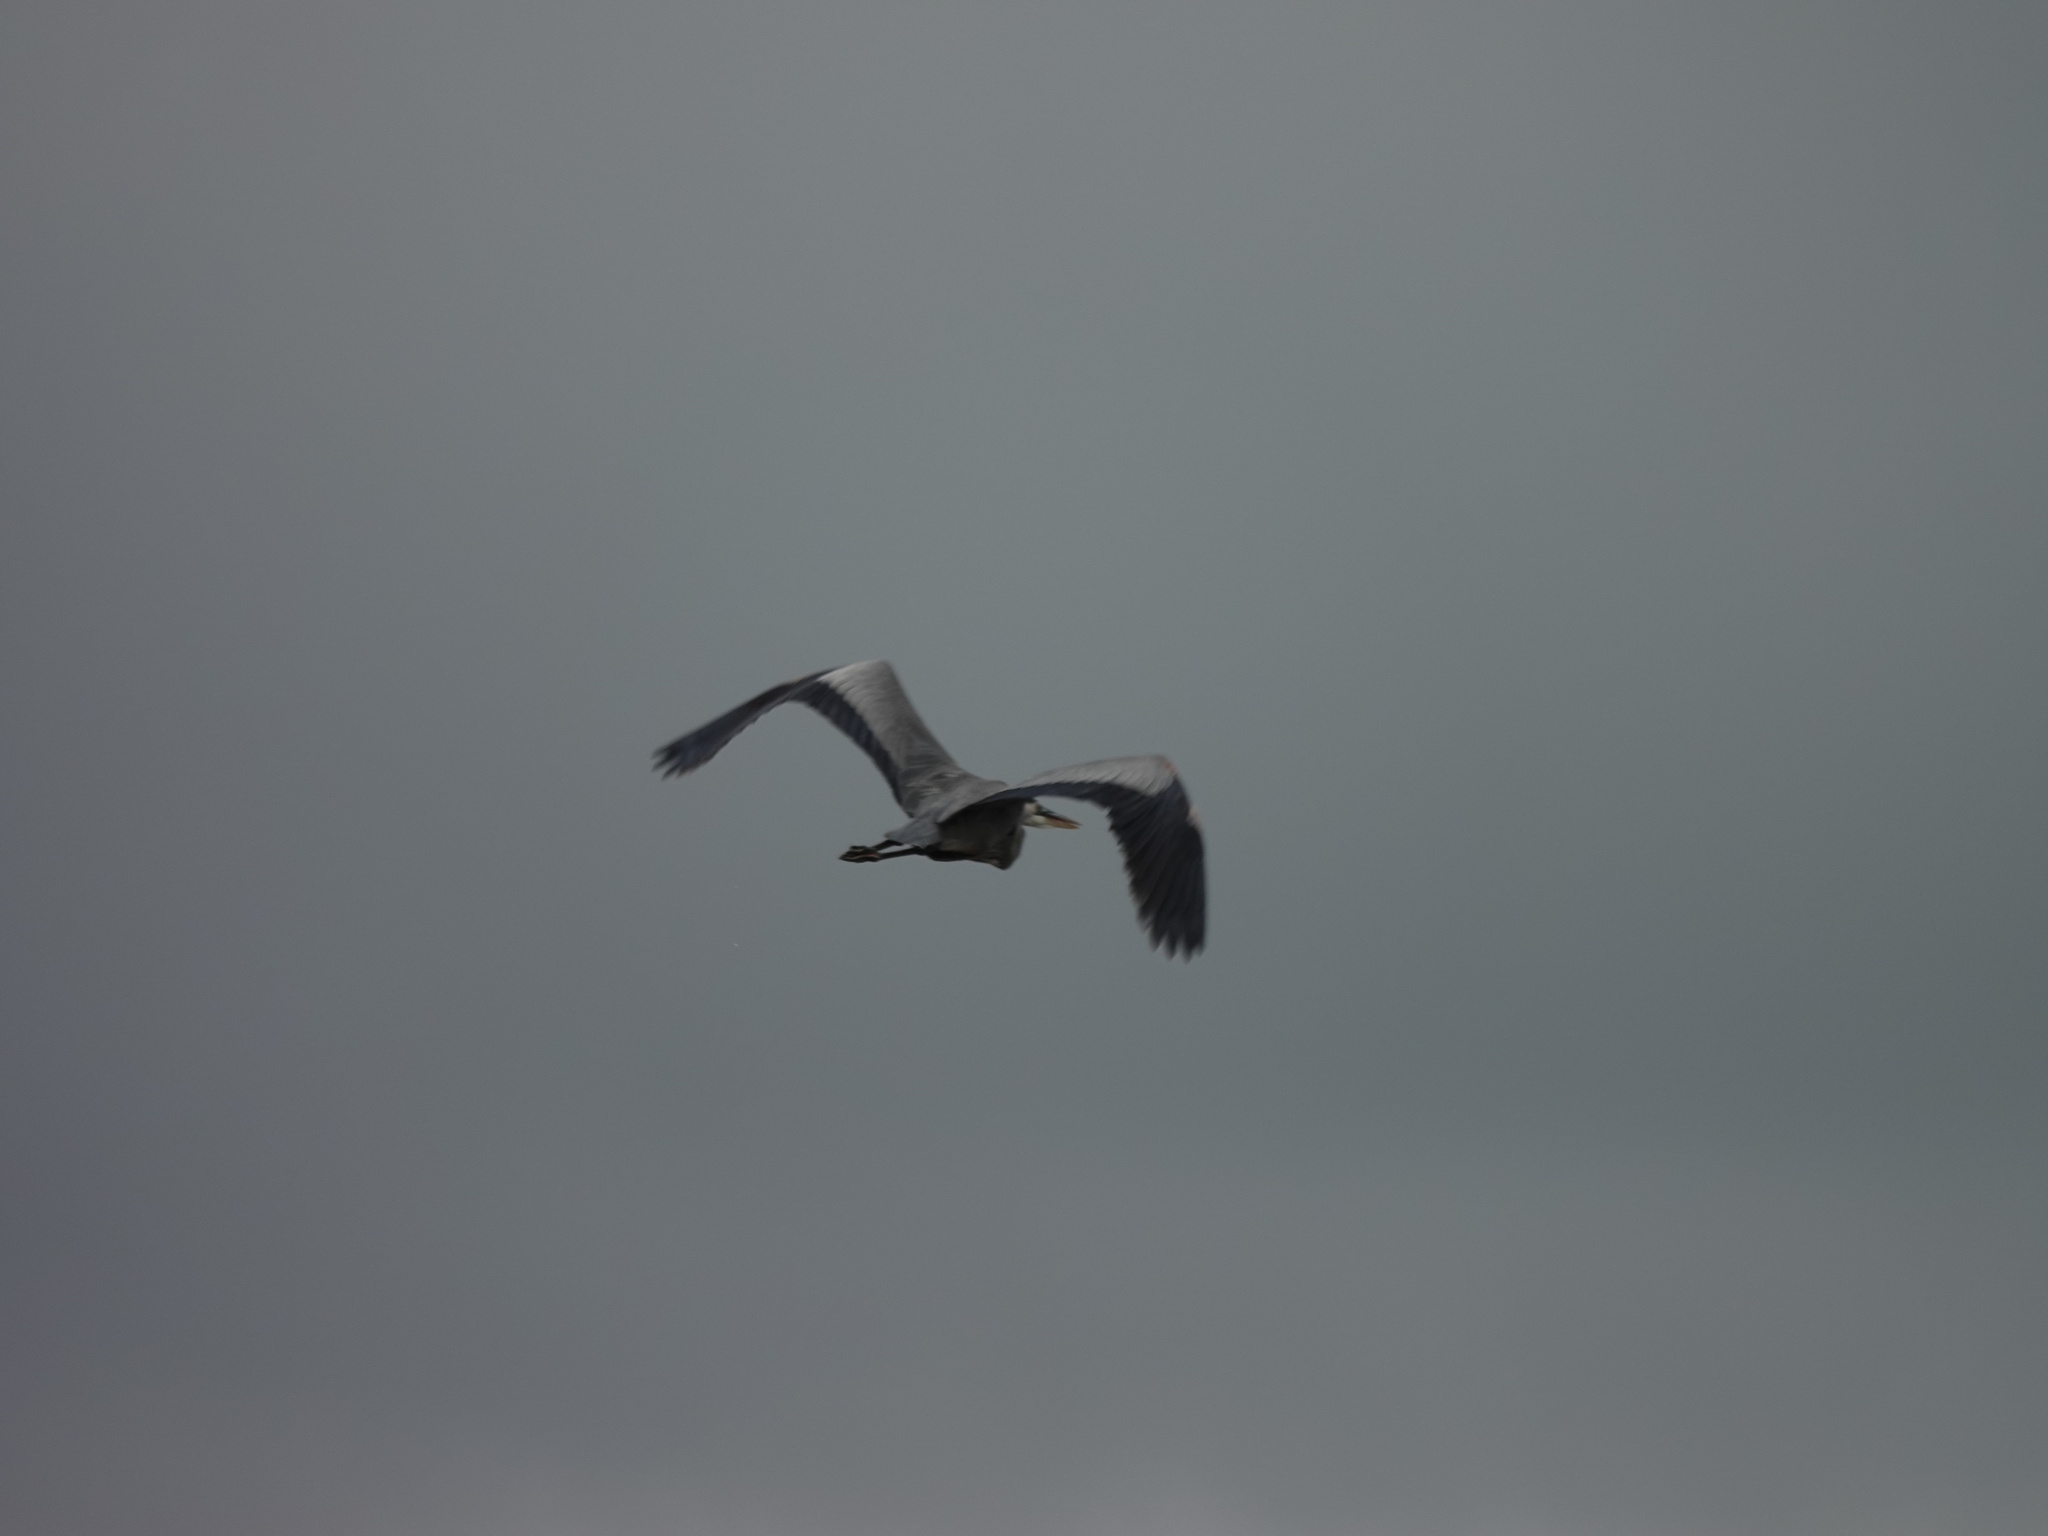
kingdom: Animalia
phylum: Chordata
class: Aves
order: Pelecaniformes
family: Ardeidae
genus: Ardea
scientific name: Ardea herodias
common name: Great blue heron
